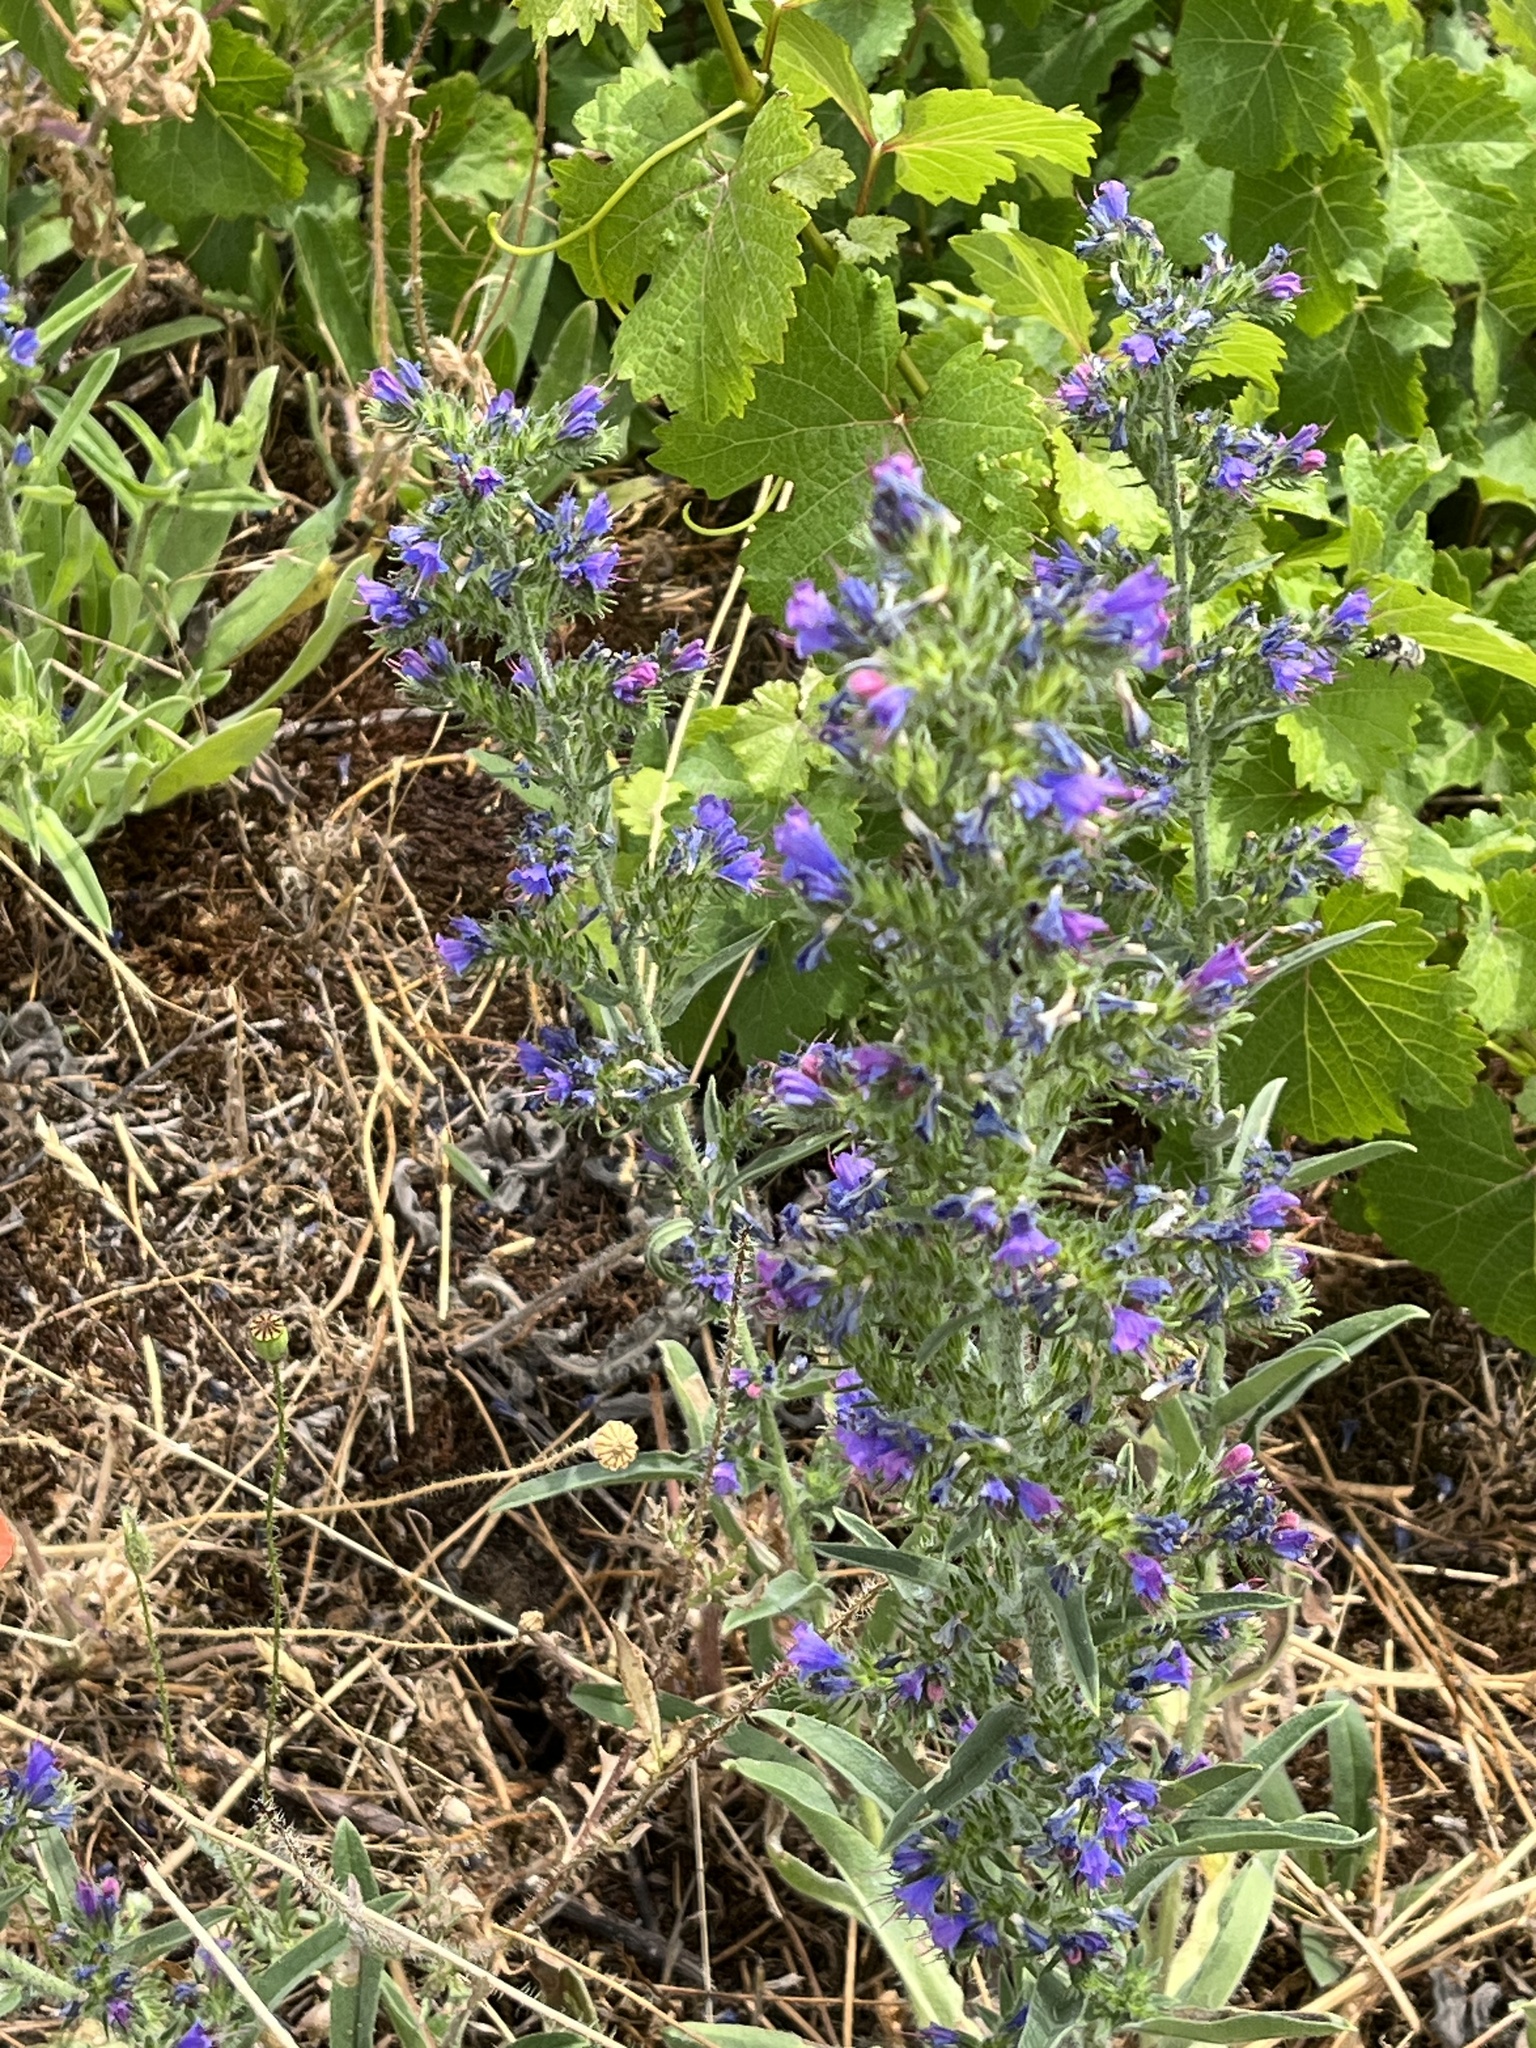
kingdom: Plantae
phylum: Tracheophyta
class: Magnoliopsida
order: Boraginales
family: Boraginaceae
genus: Echium
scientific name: Echium vulgare
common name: Common viper's bugloss
